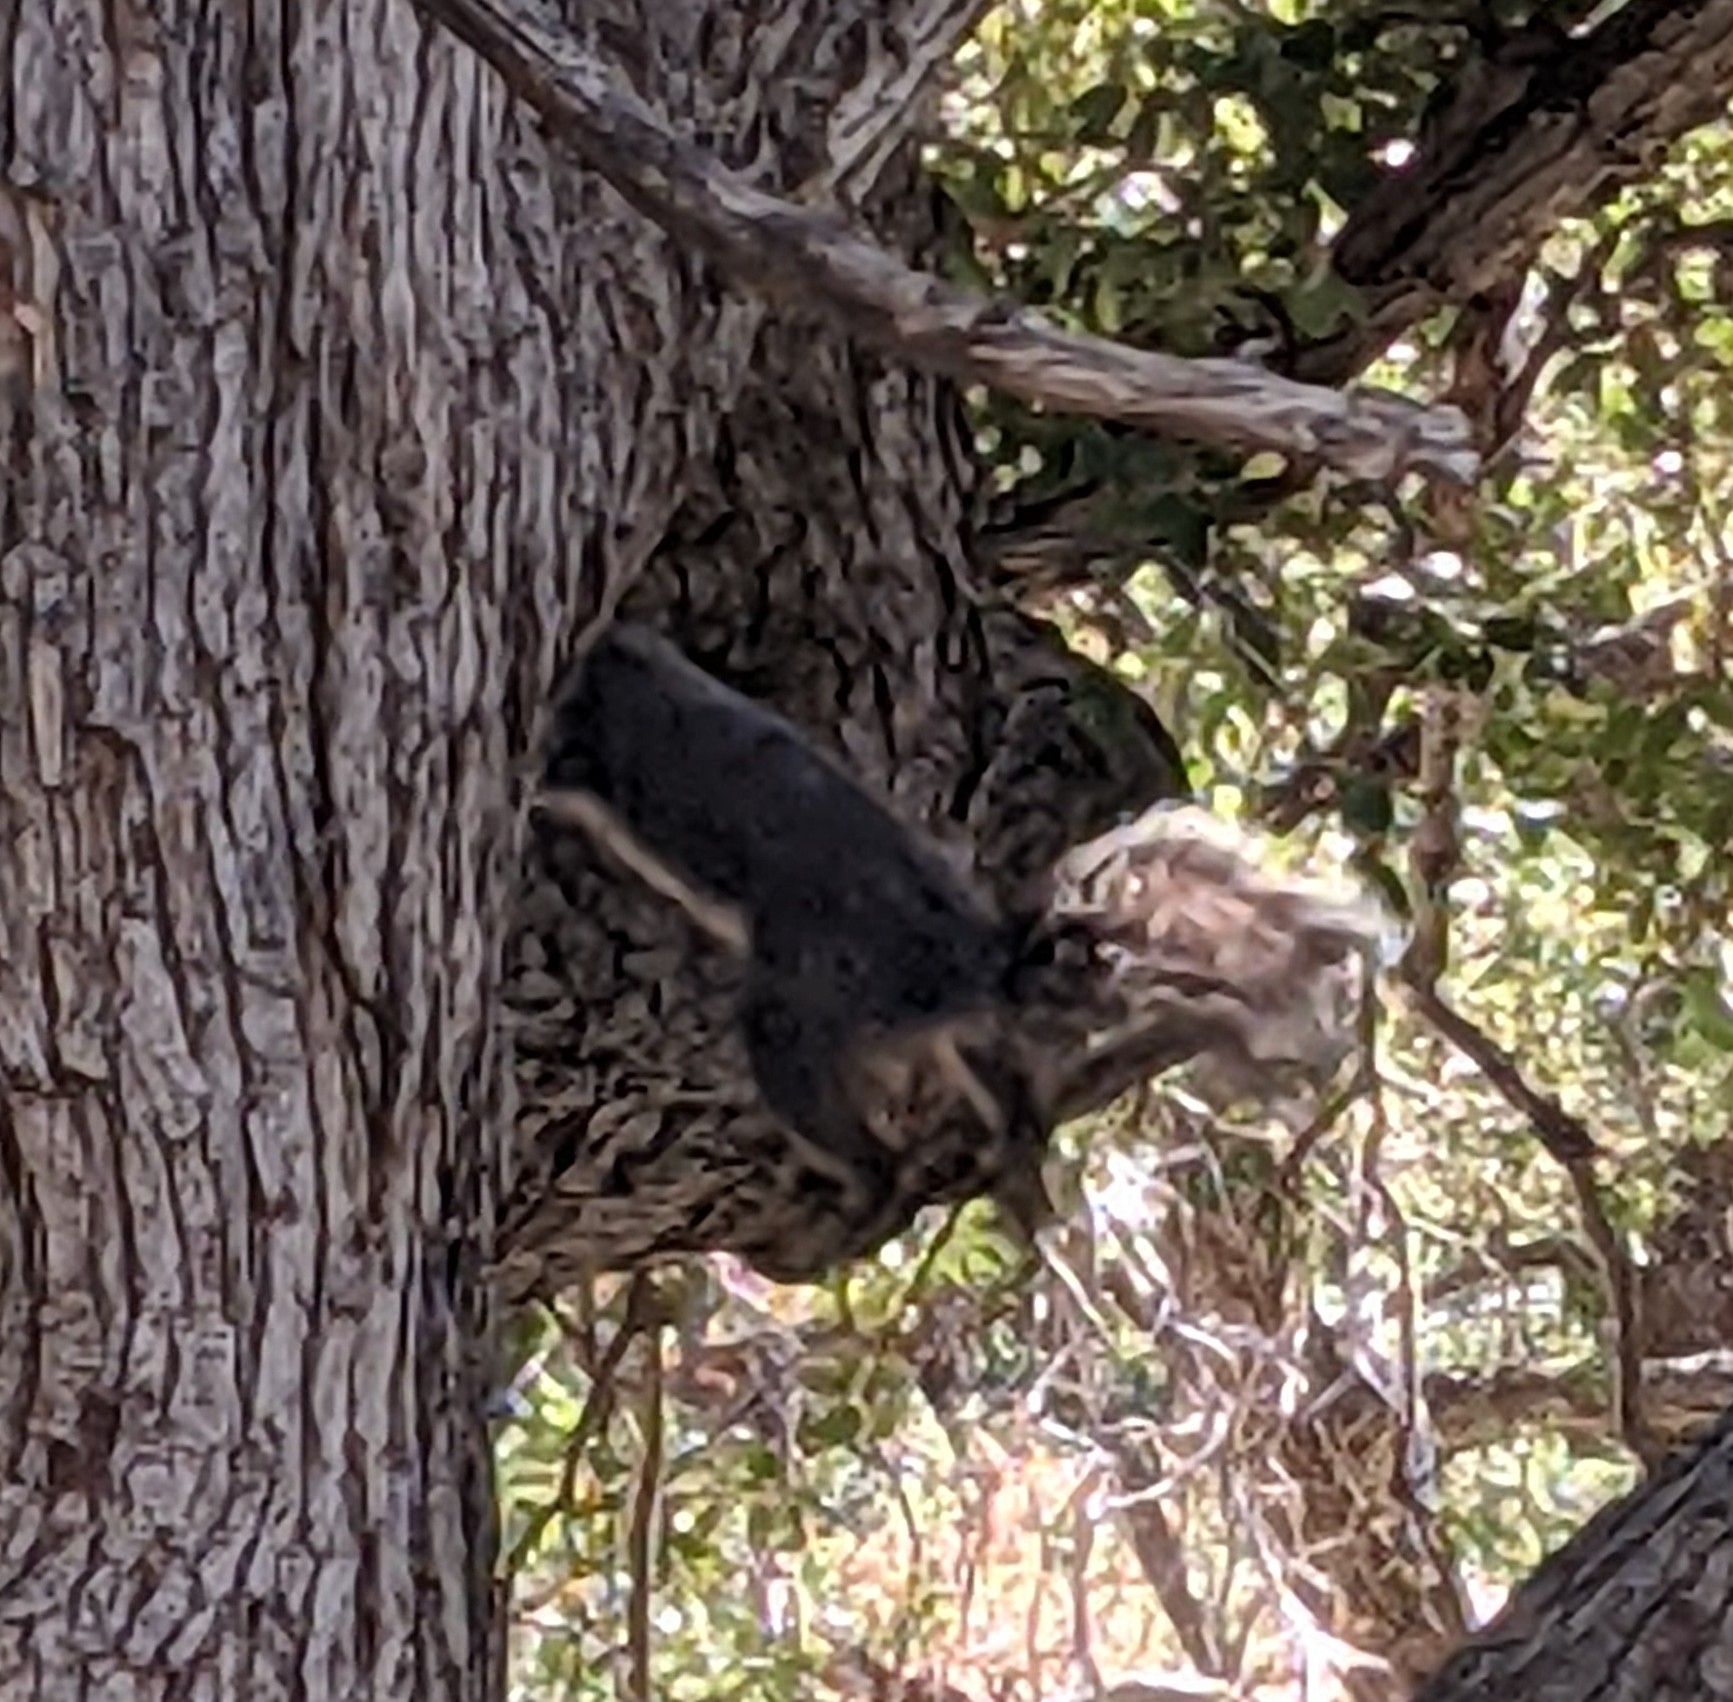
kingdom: Animalia
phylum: Chordata
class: Mammalia
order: Rodentia
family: Sciuridae
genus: Sciurus
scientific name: Sciurus griseus
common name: Western gray squirrel
